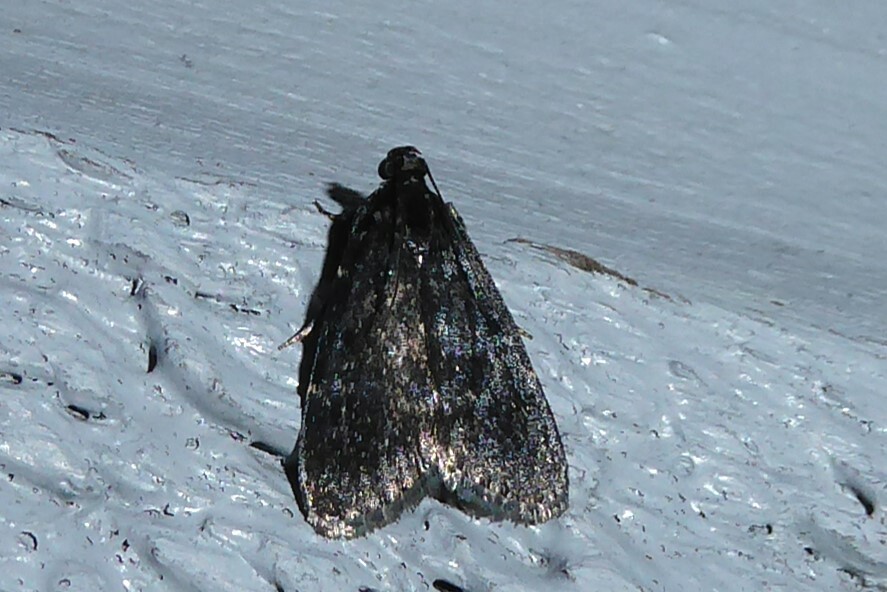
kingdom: Animalia
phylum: Arthropoda
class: Insecta
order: Lepidoptera
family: Pyralidae
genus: Stericta
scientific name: Stericta carbonalis
